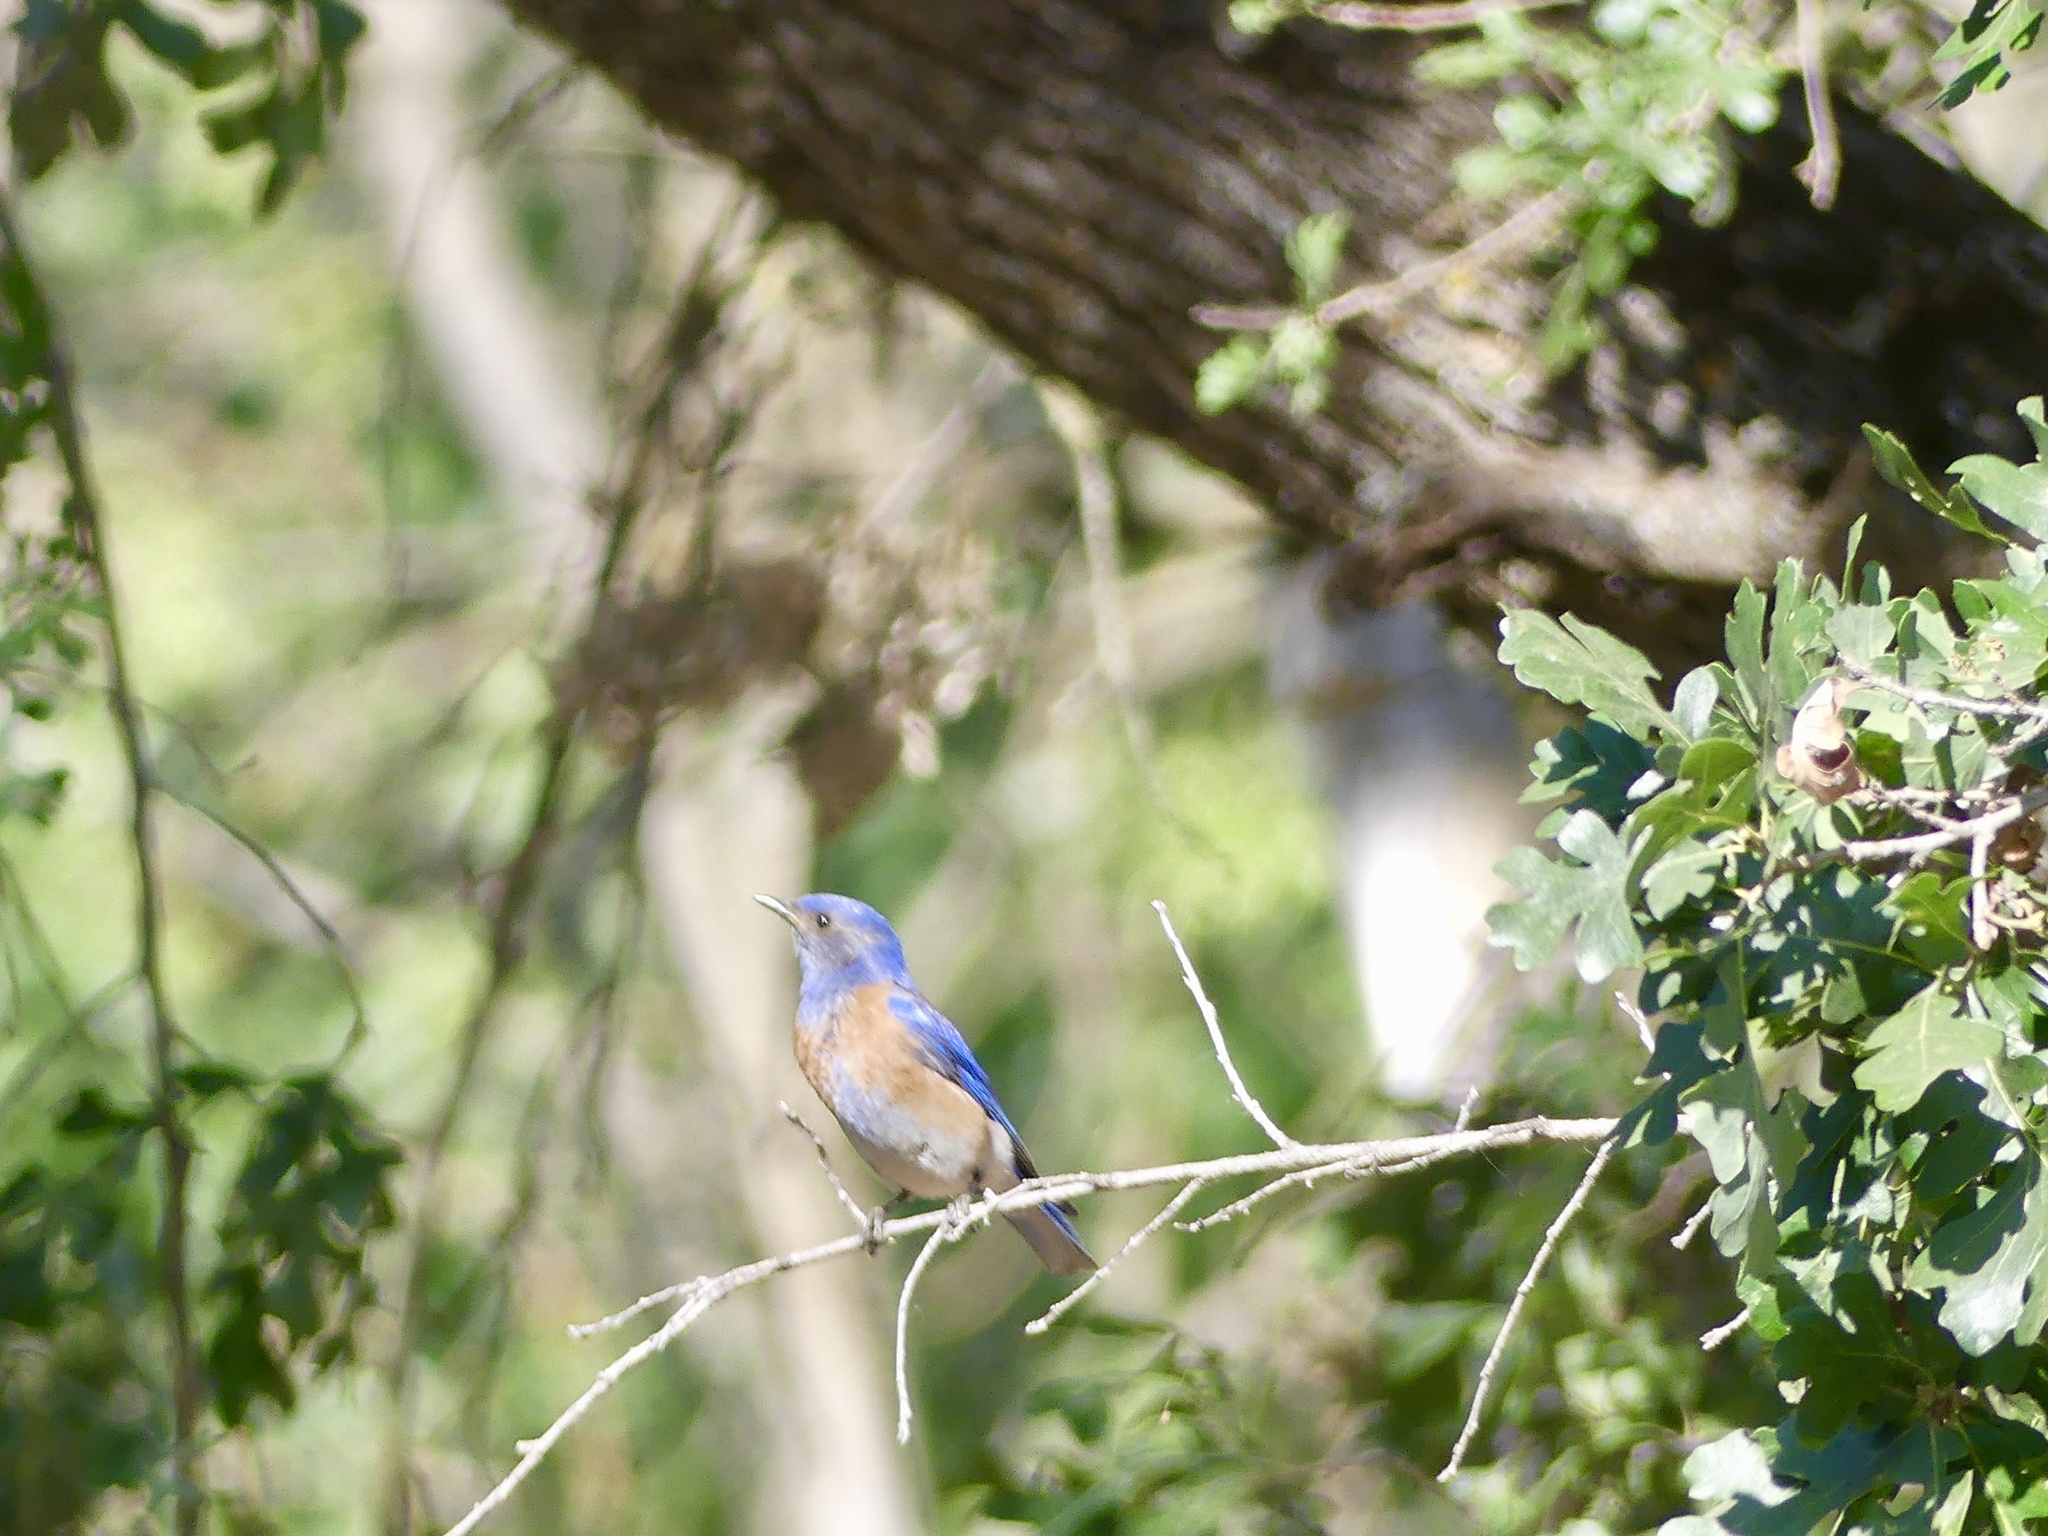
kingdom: Animalia
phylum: Chordata
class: Aves
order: Passeriformes
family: Turdidae
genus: Sialia
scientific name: Sialia mexicana
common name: Western bluebird
